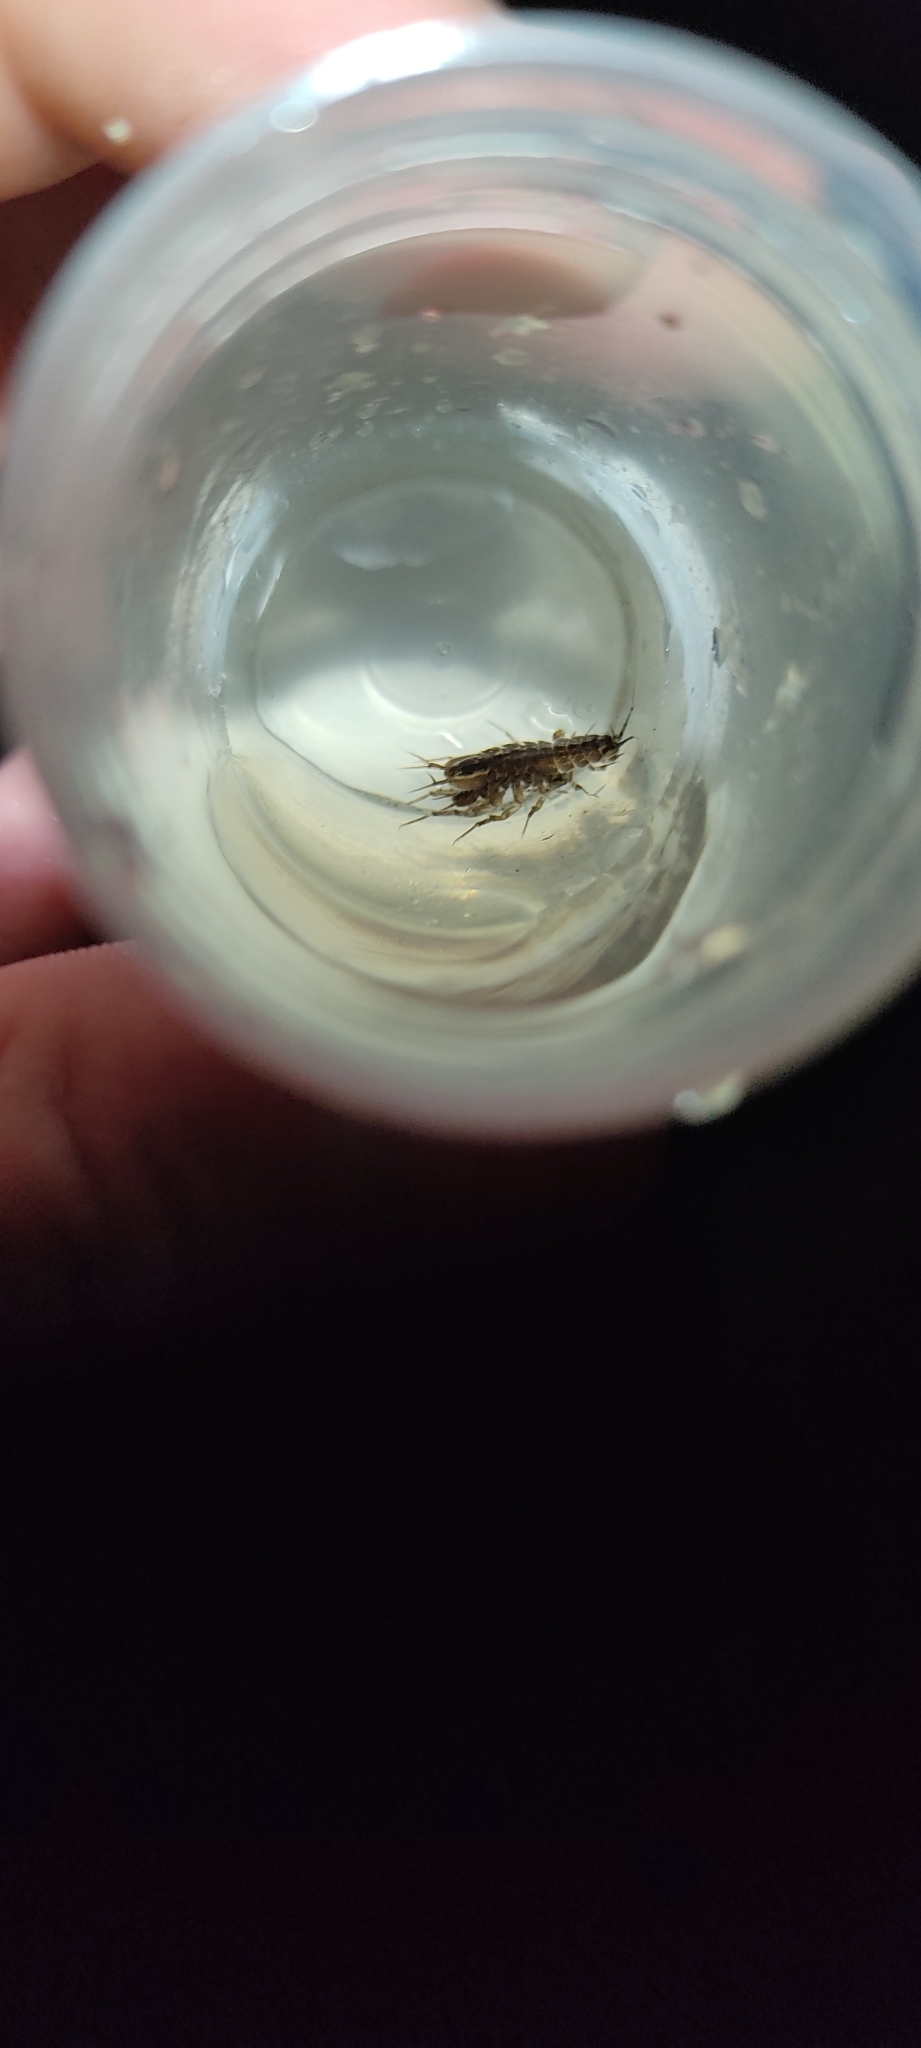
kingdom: Animalia
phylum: Arthropoda
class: Malacostraca
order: Isopoda
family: Asellidae
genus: Asellus
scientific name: Asellus aquaticus
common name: Water hog lice/slaters
